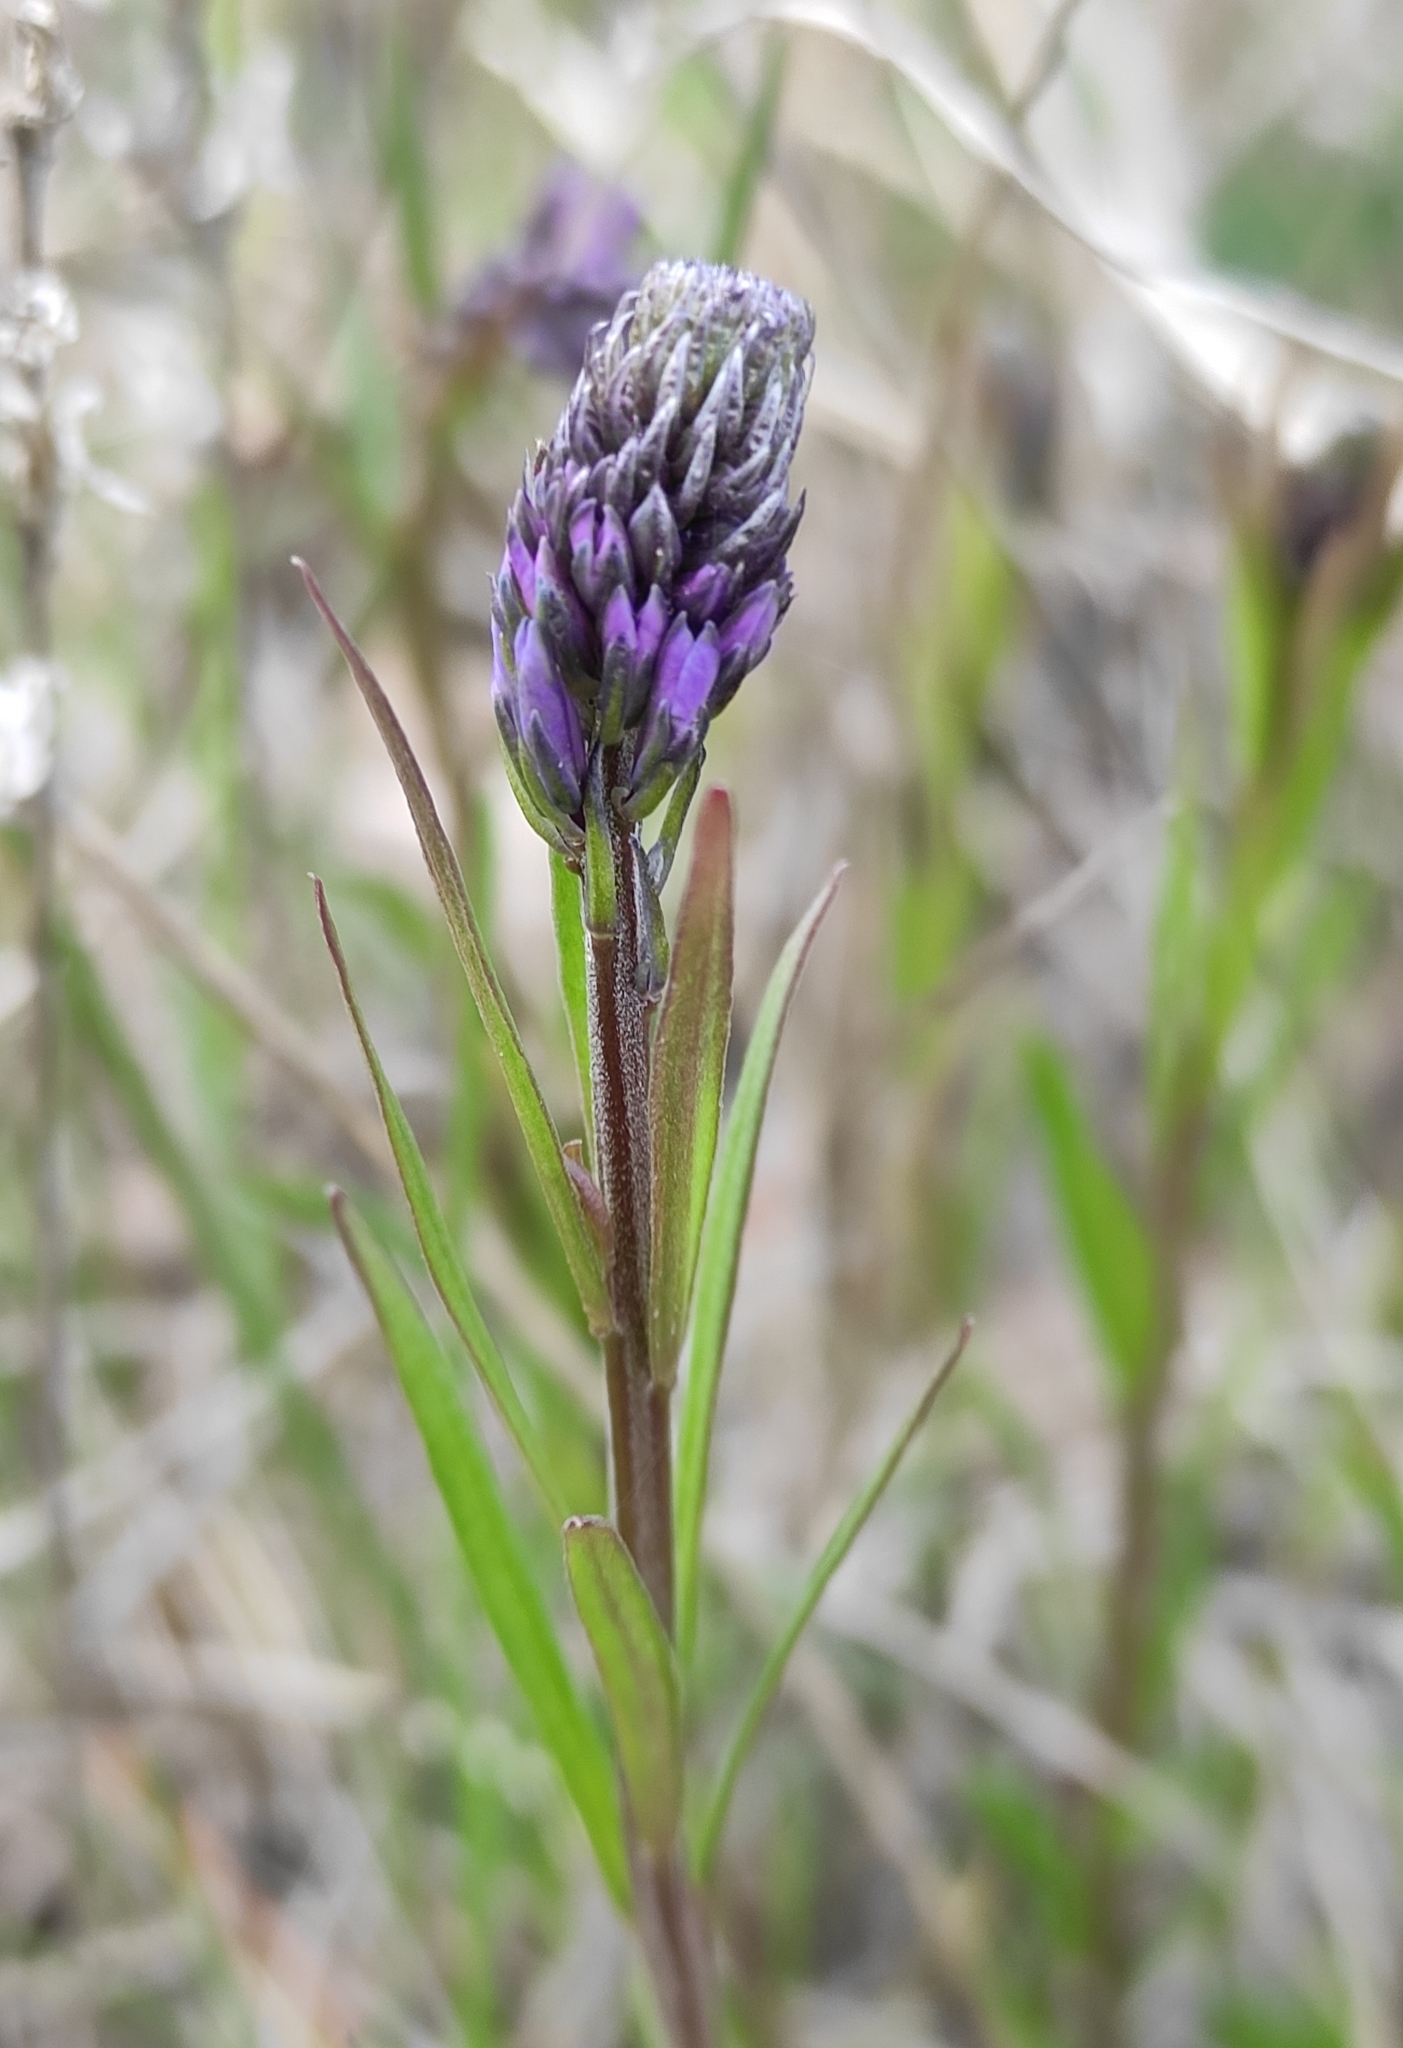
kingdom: Plantae
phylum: Tracheophyta
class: Magnoliopsida
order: Fabales
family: Polygalaceae
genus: Polygala
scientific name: Polygala comosa
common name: Tufted milkwort
